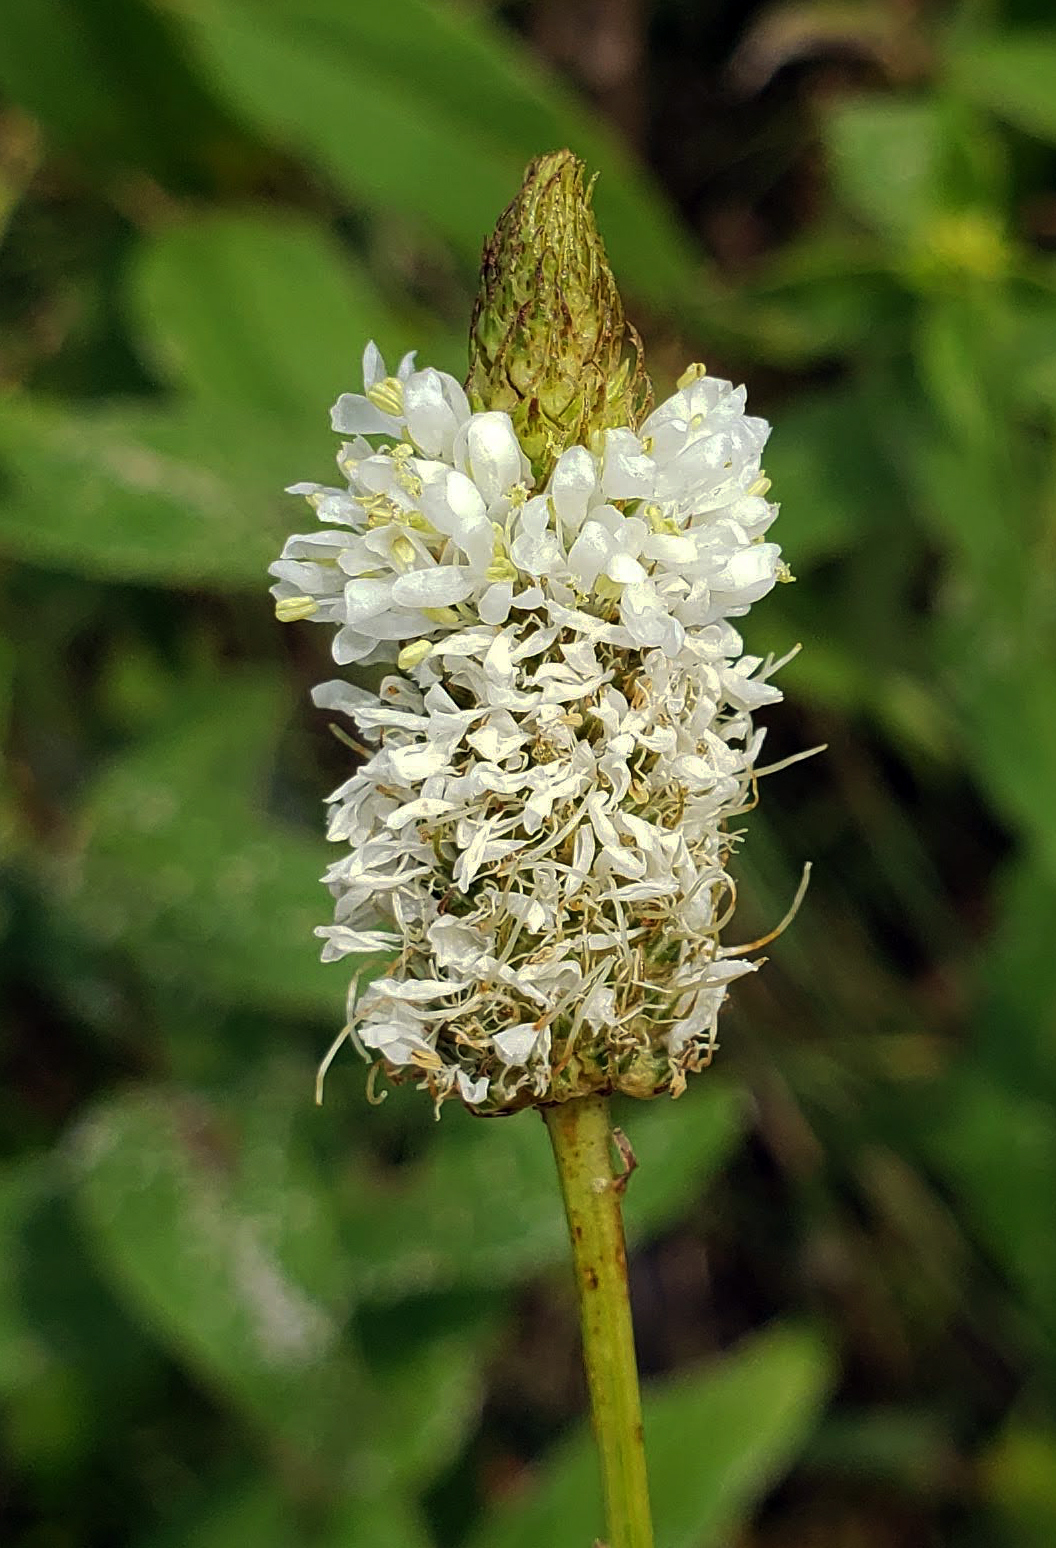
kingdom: Plantae
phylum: Tracheophyta
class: Magnoliopsida
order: Fabales
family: Fabaceae
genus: Dalea
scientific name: Dalea candida
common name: White prairie-clover
